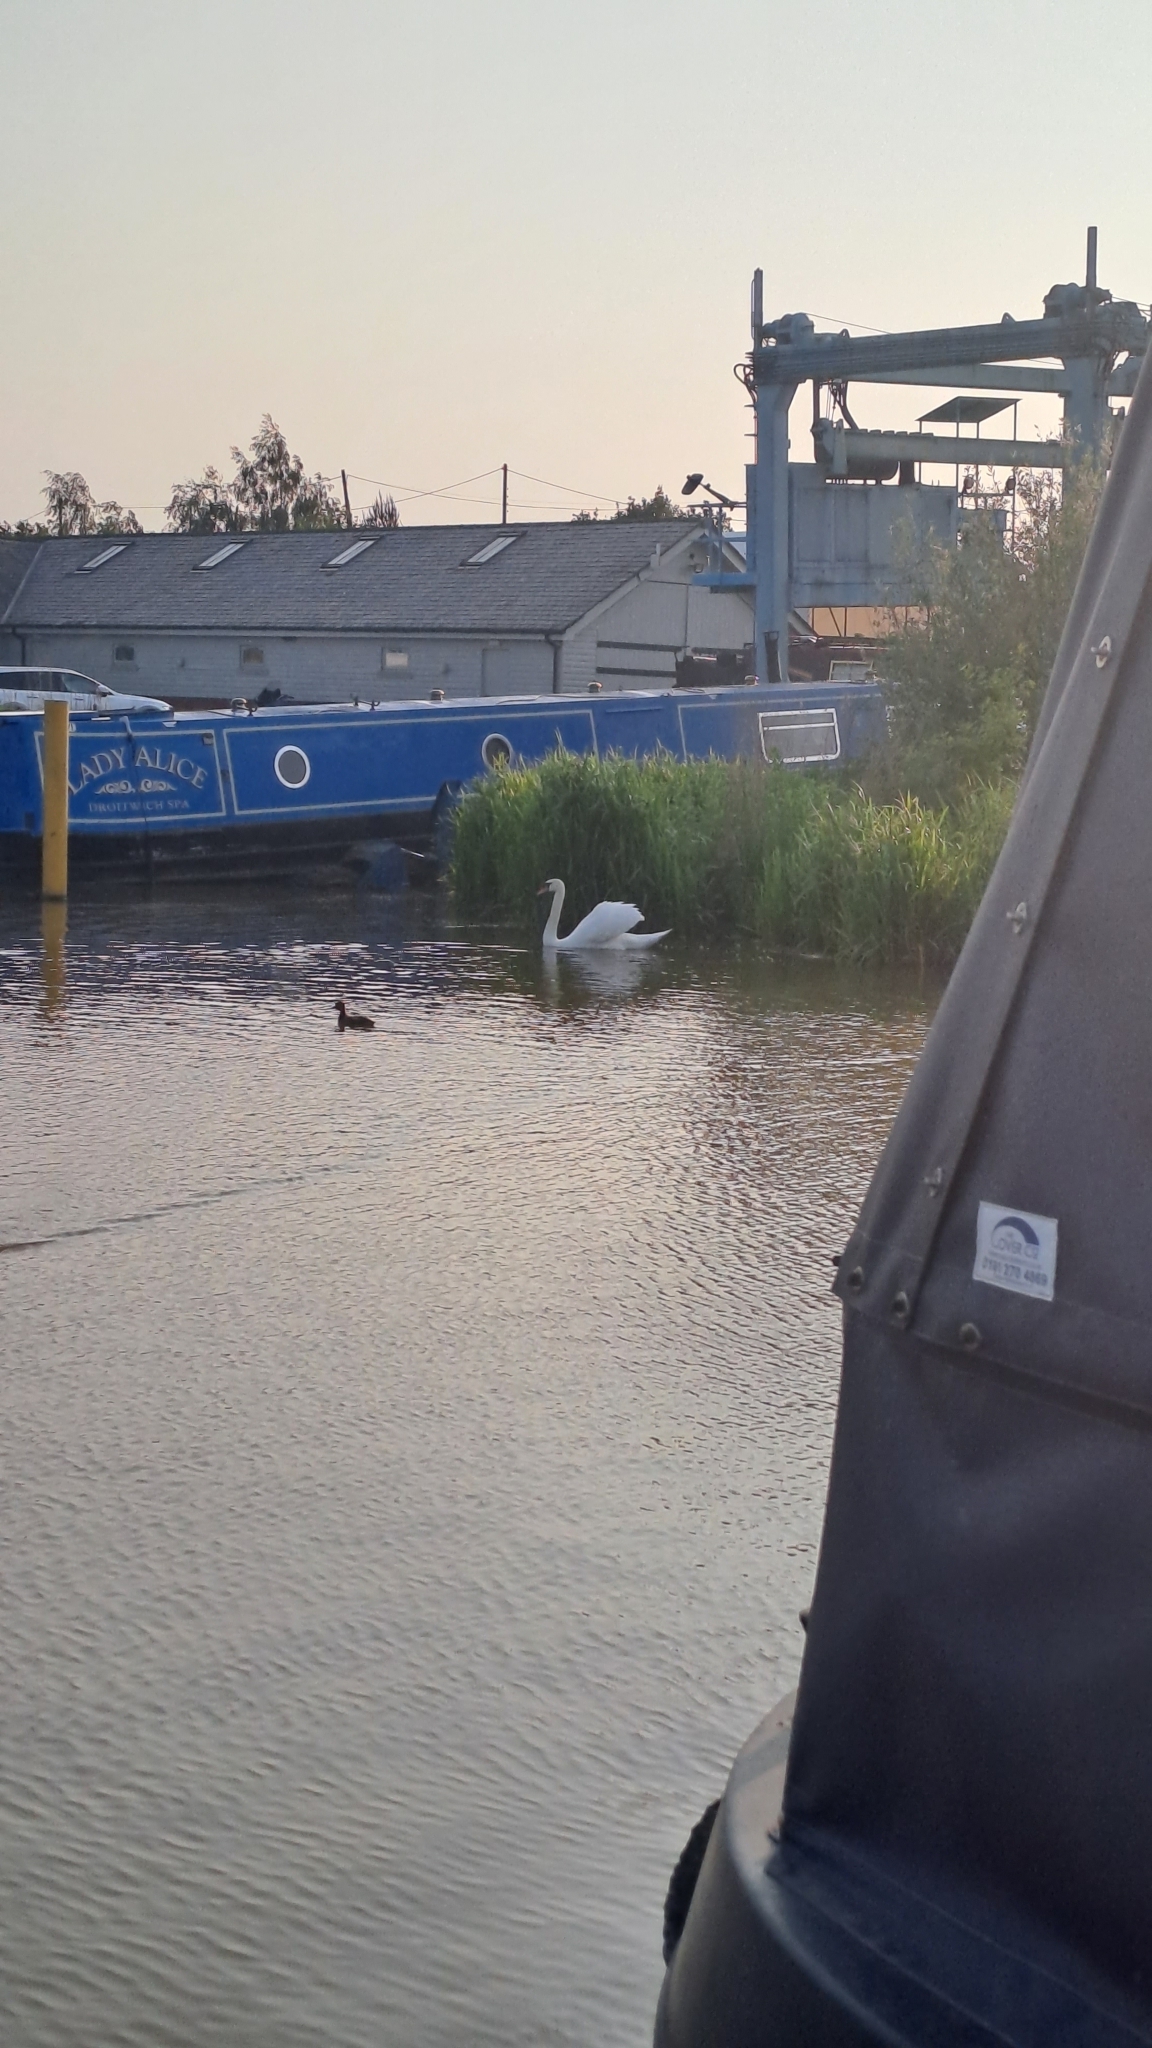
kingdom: Animalia
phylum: Chordata
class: Aves
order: Anseriformes
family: Anatidae
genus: Cygnus
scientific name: Cygnus olor
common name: Mute swan
